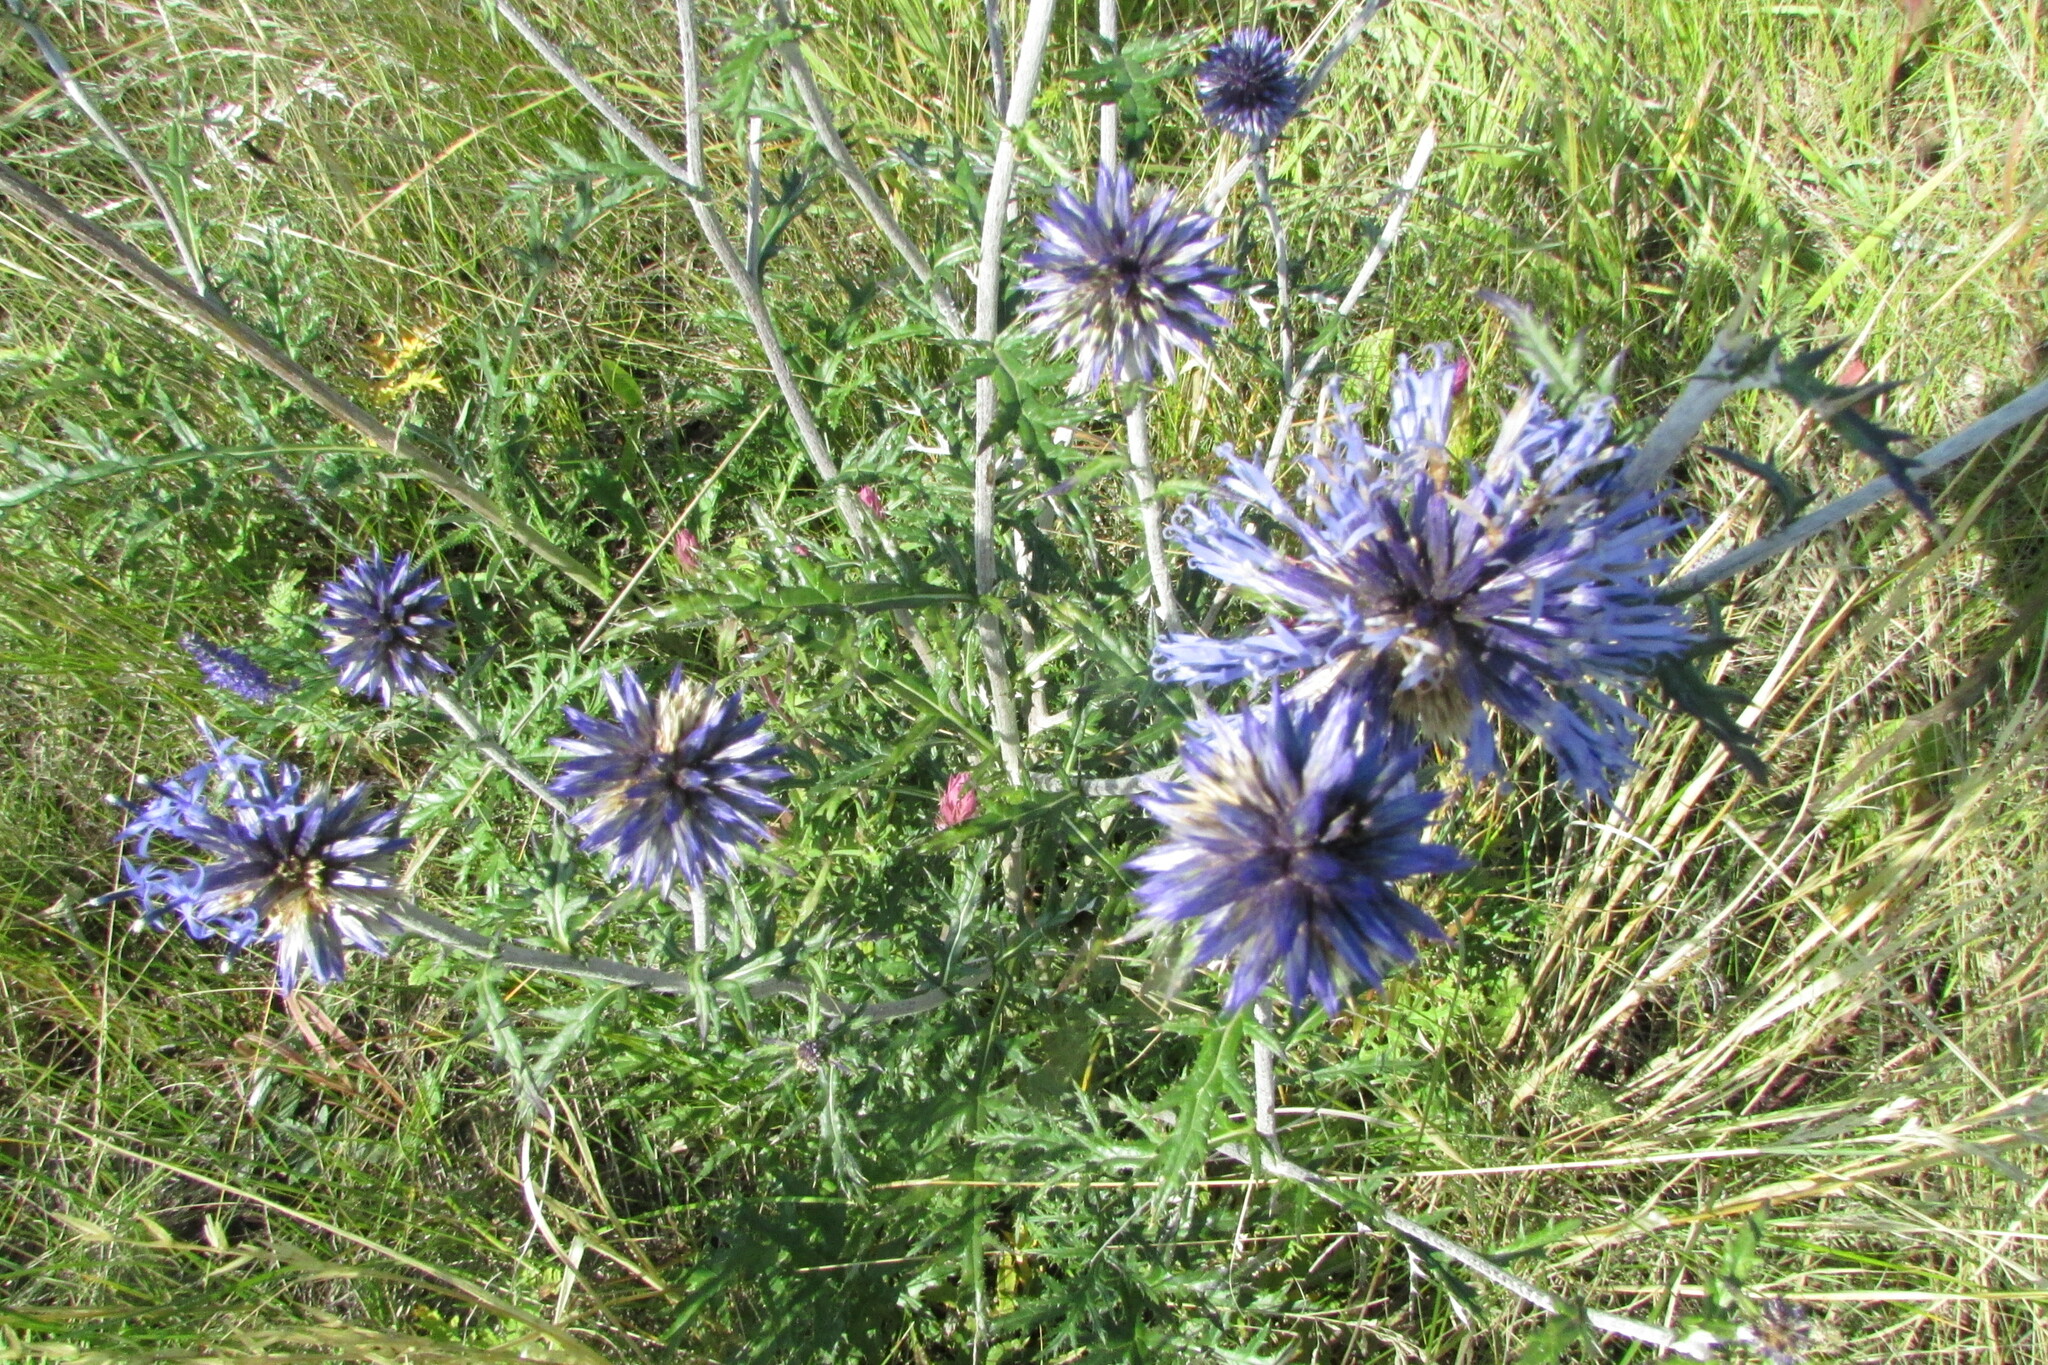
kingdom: Plantae
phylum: Tracheophyta
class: Magnoliopsida
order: Asterales
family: Asteraceae
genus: Echinops
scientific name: Echinops ritro
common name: Globe thistle
